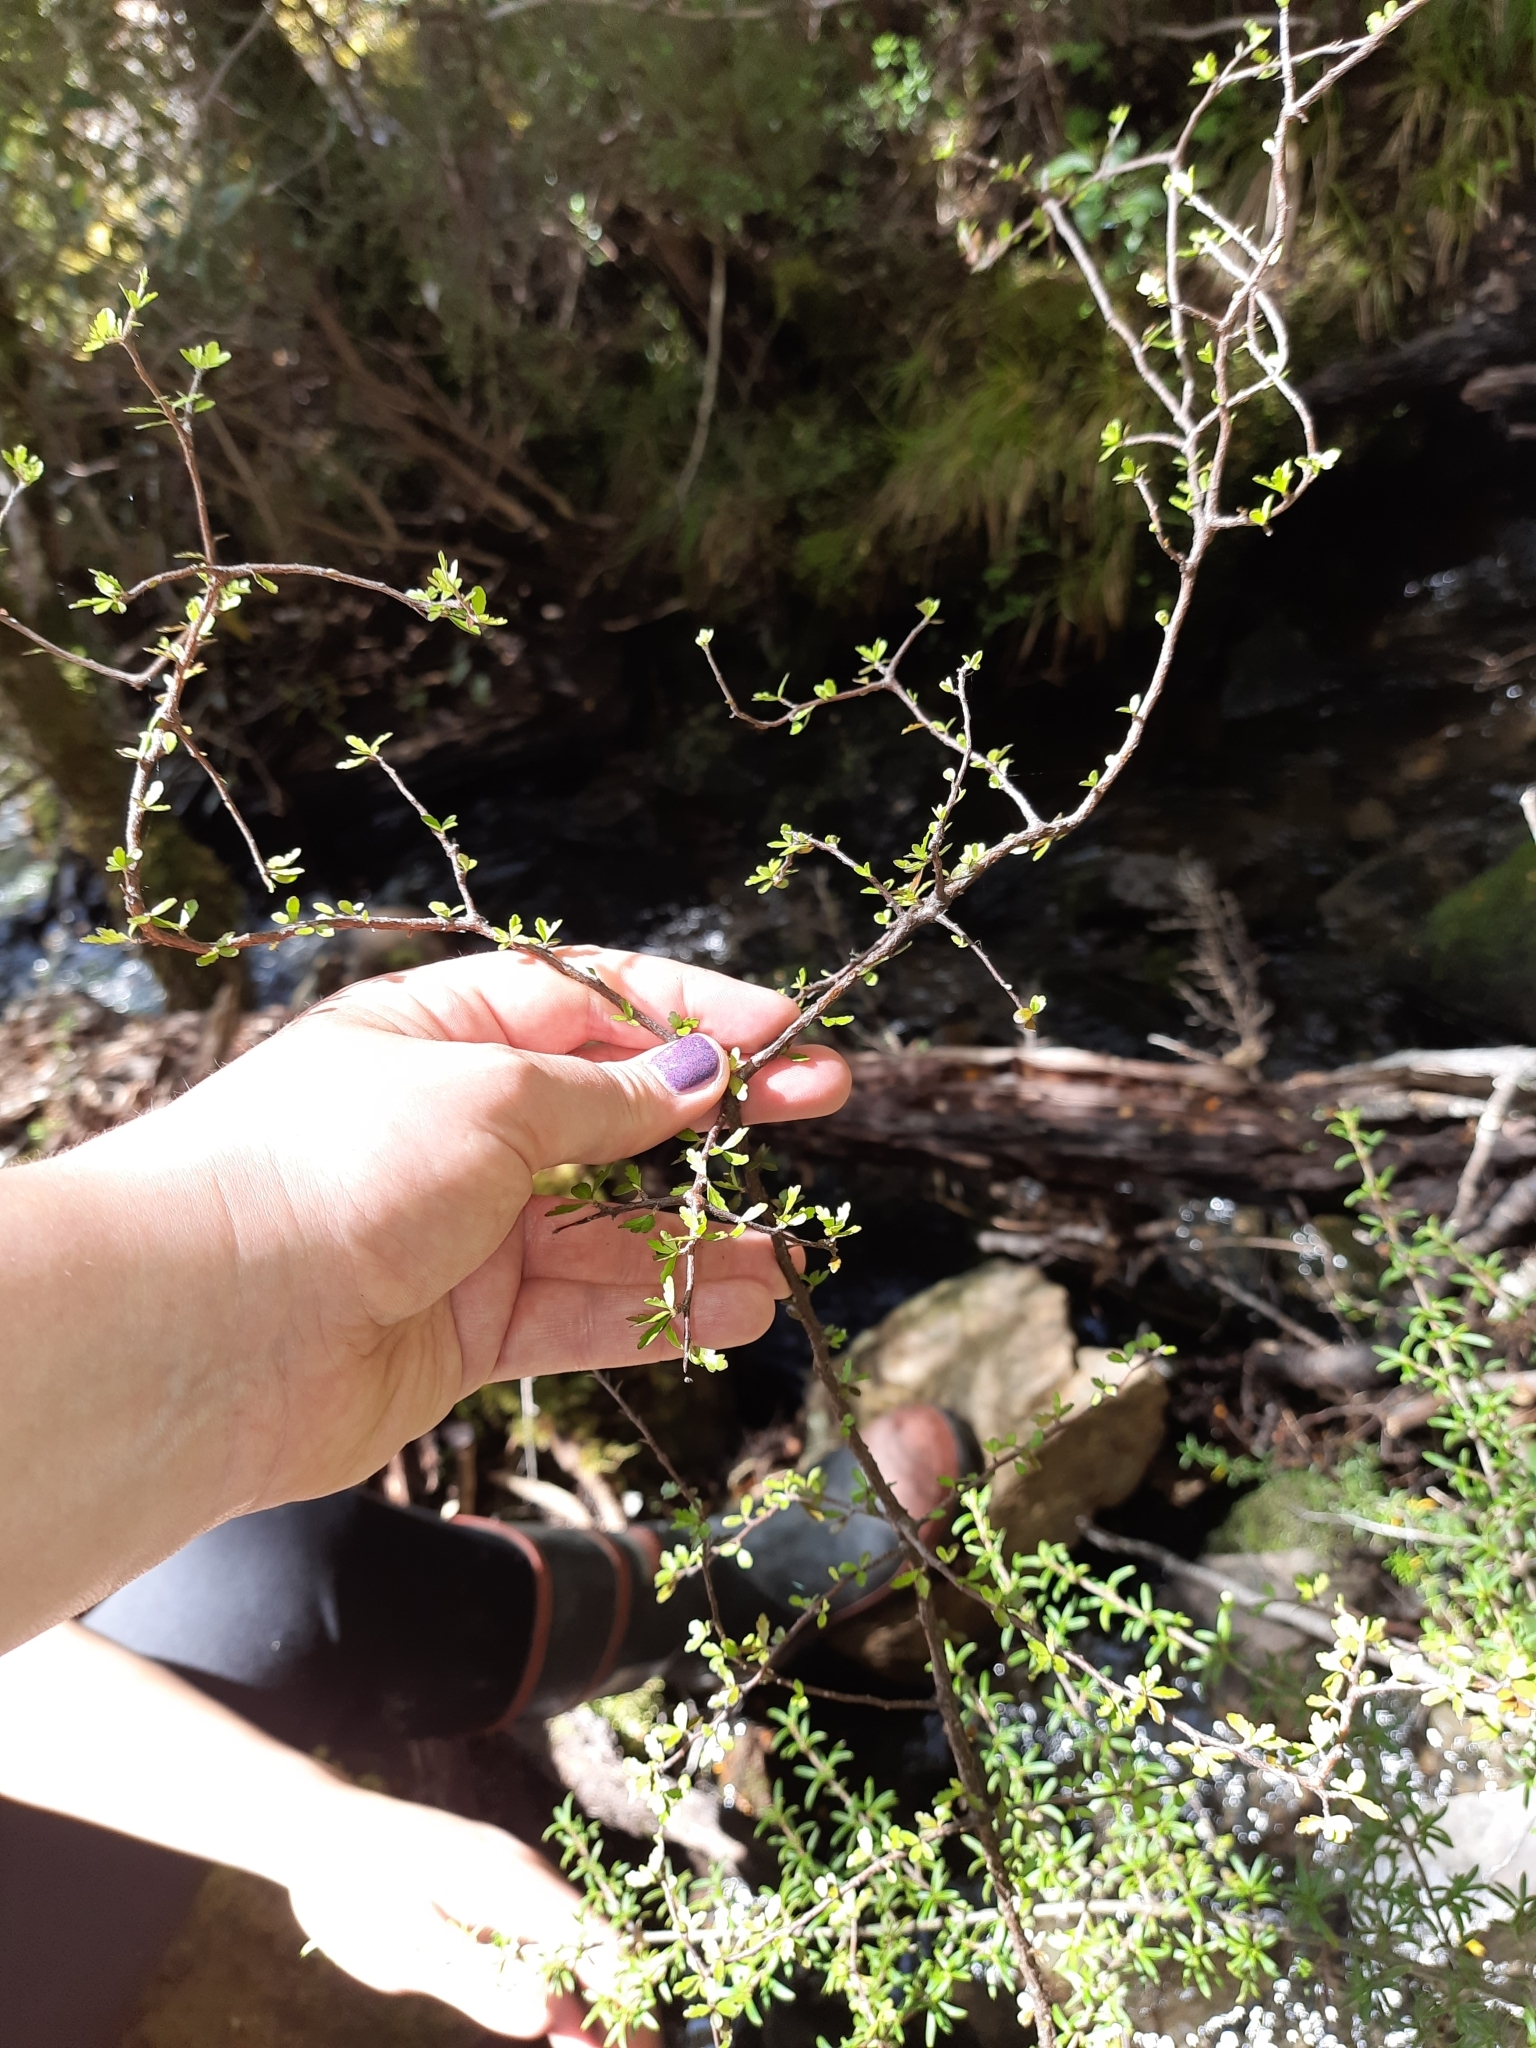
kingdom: Plantae
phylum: Tracheophyta
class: Magnoliopsida
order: Apiales
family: Pittosporaceae
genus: Pittosporum
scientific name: Pittosporum divaricatum
